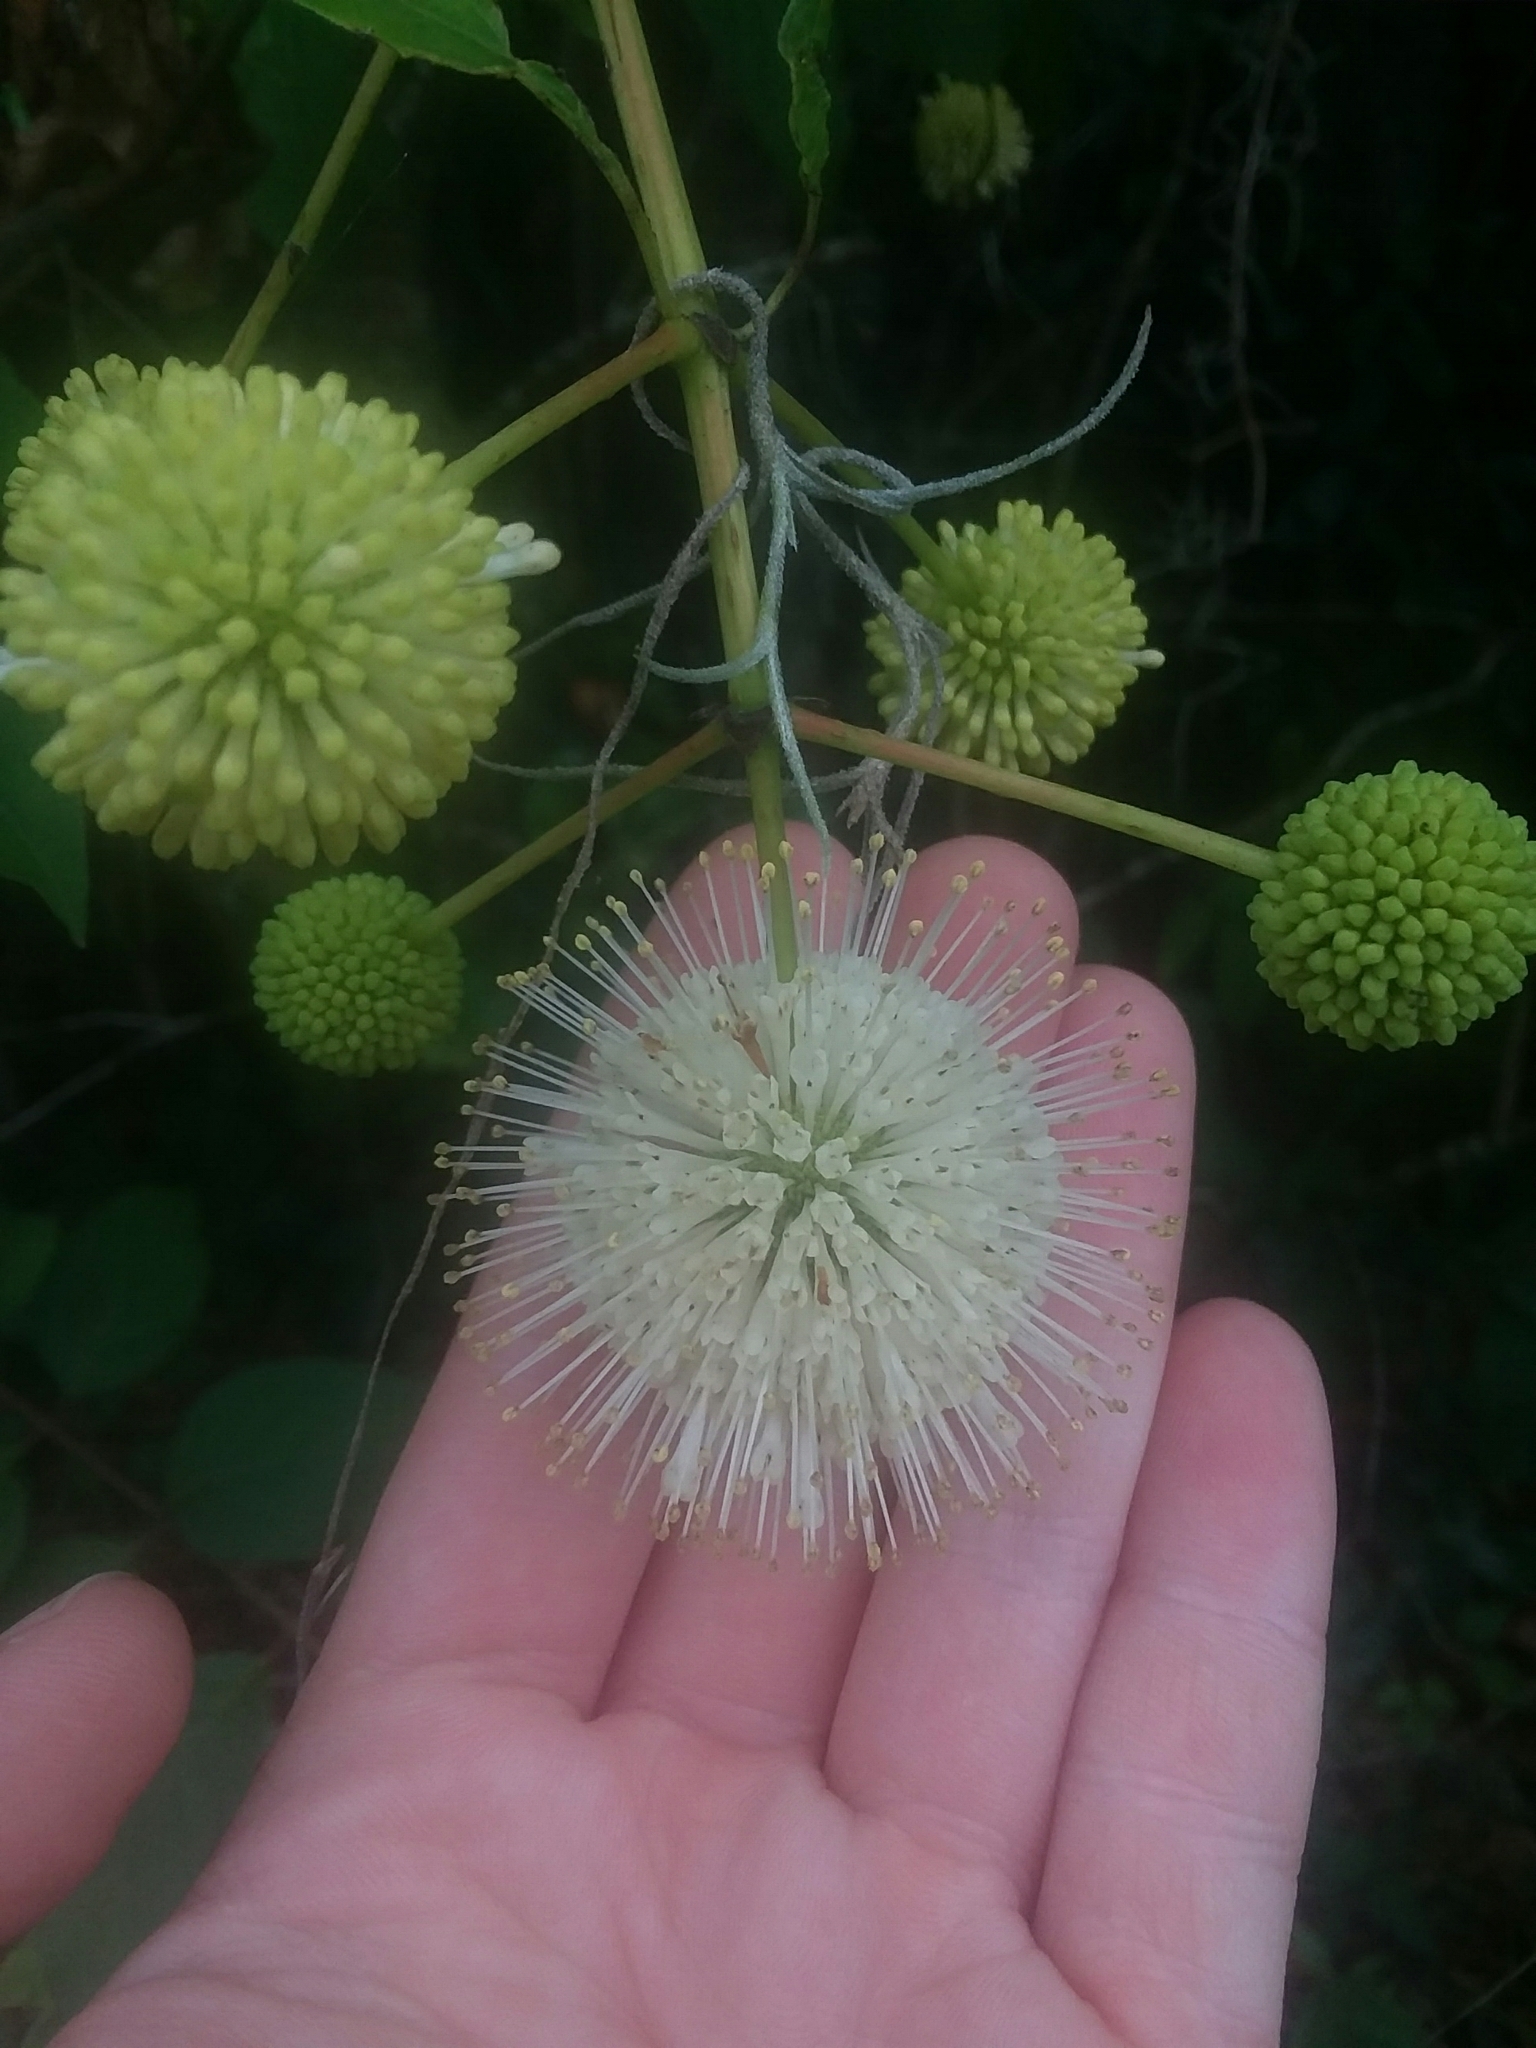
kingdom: Plantae
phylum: Tracheophyta
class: Magnoliopsida
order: Gentianales
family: Rubiaceae
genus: Cephalanthus
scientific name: Cephalanthus occidentalis
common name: Button-willow
